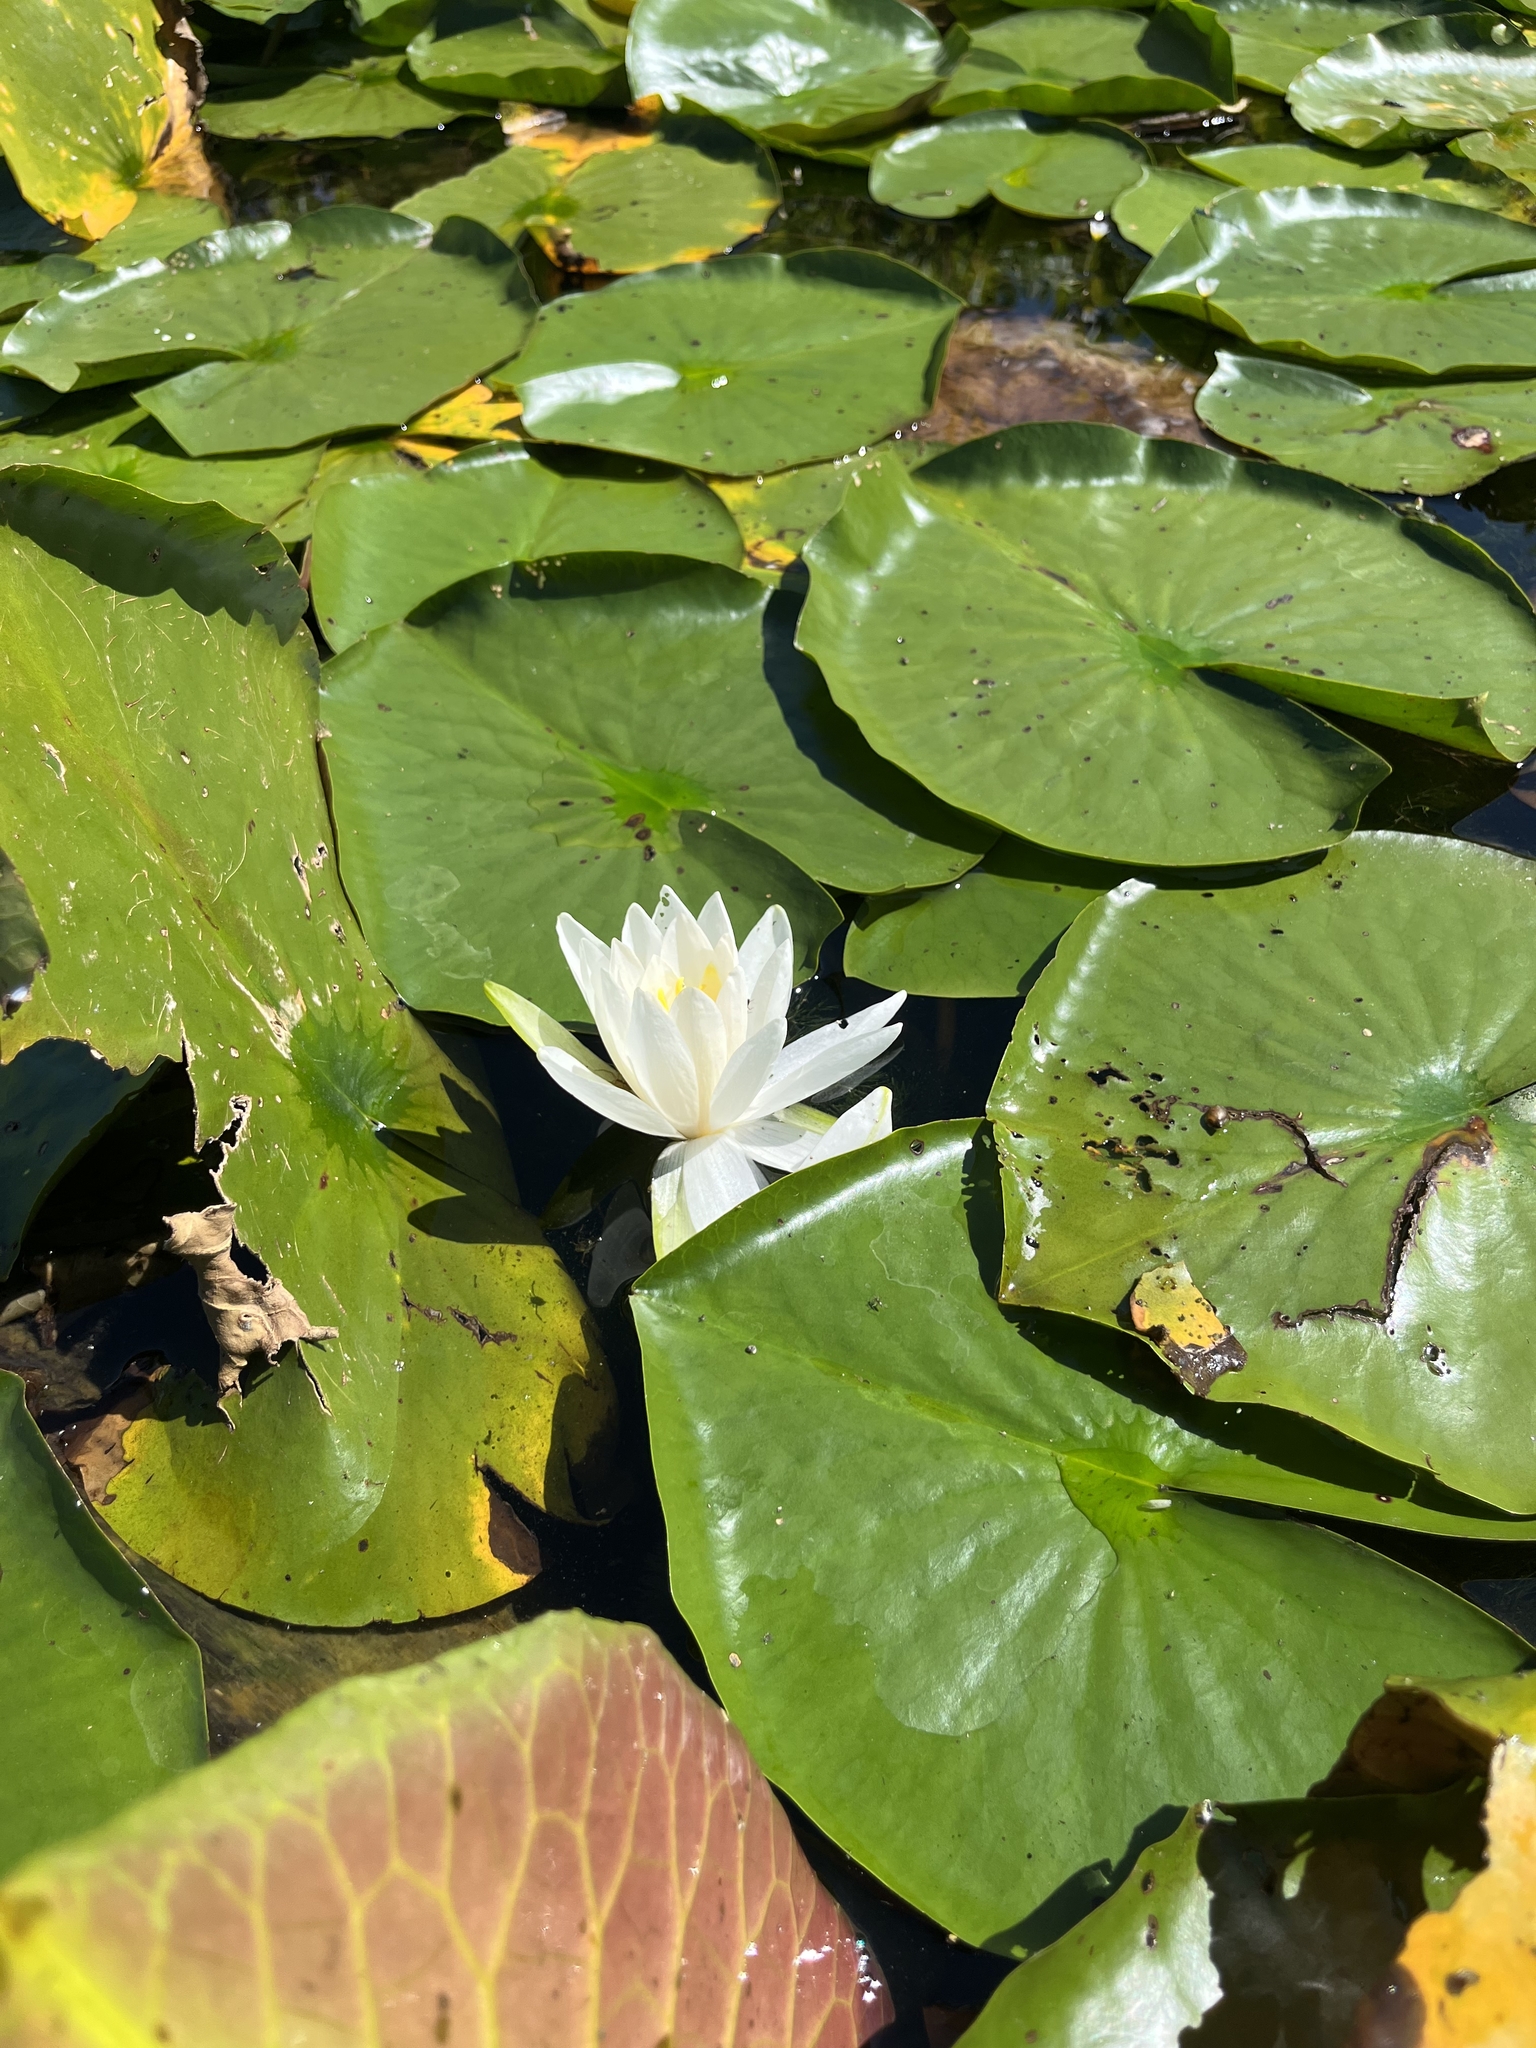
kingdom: Plantae
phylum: Tracheophyta
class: Magnoliopsida
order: Nymphaeales
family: Nymphaeaceae
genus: Nymphaea
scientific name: Nymphaea odorata
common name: Fragrant water-lily
